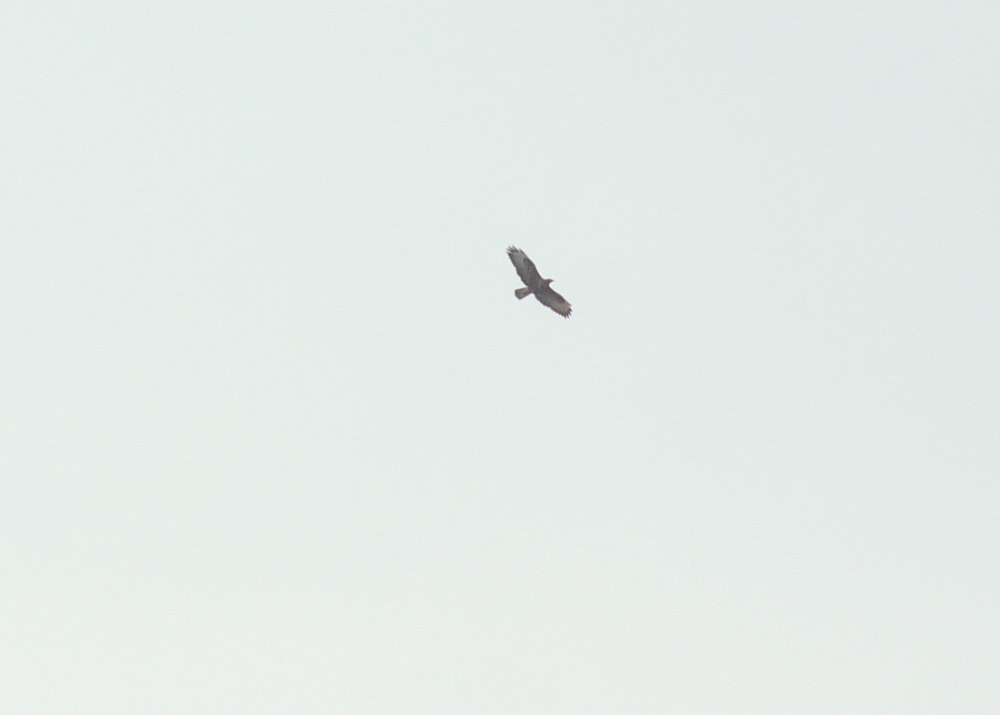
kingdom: Animalia
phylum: Chordata
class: Aves
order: Accipitriformes
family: Accipitridae
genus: Buteo
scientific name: Buteo buteo
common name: Common buzzard
